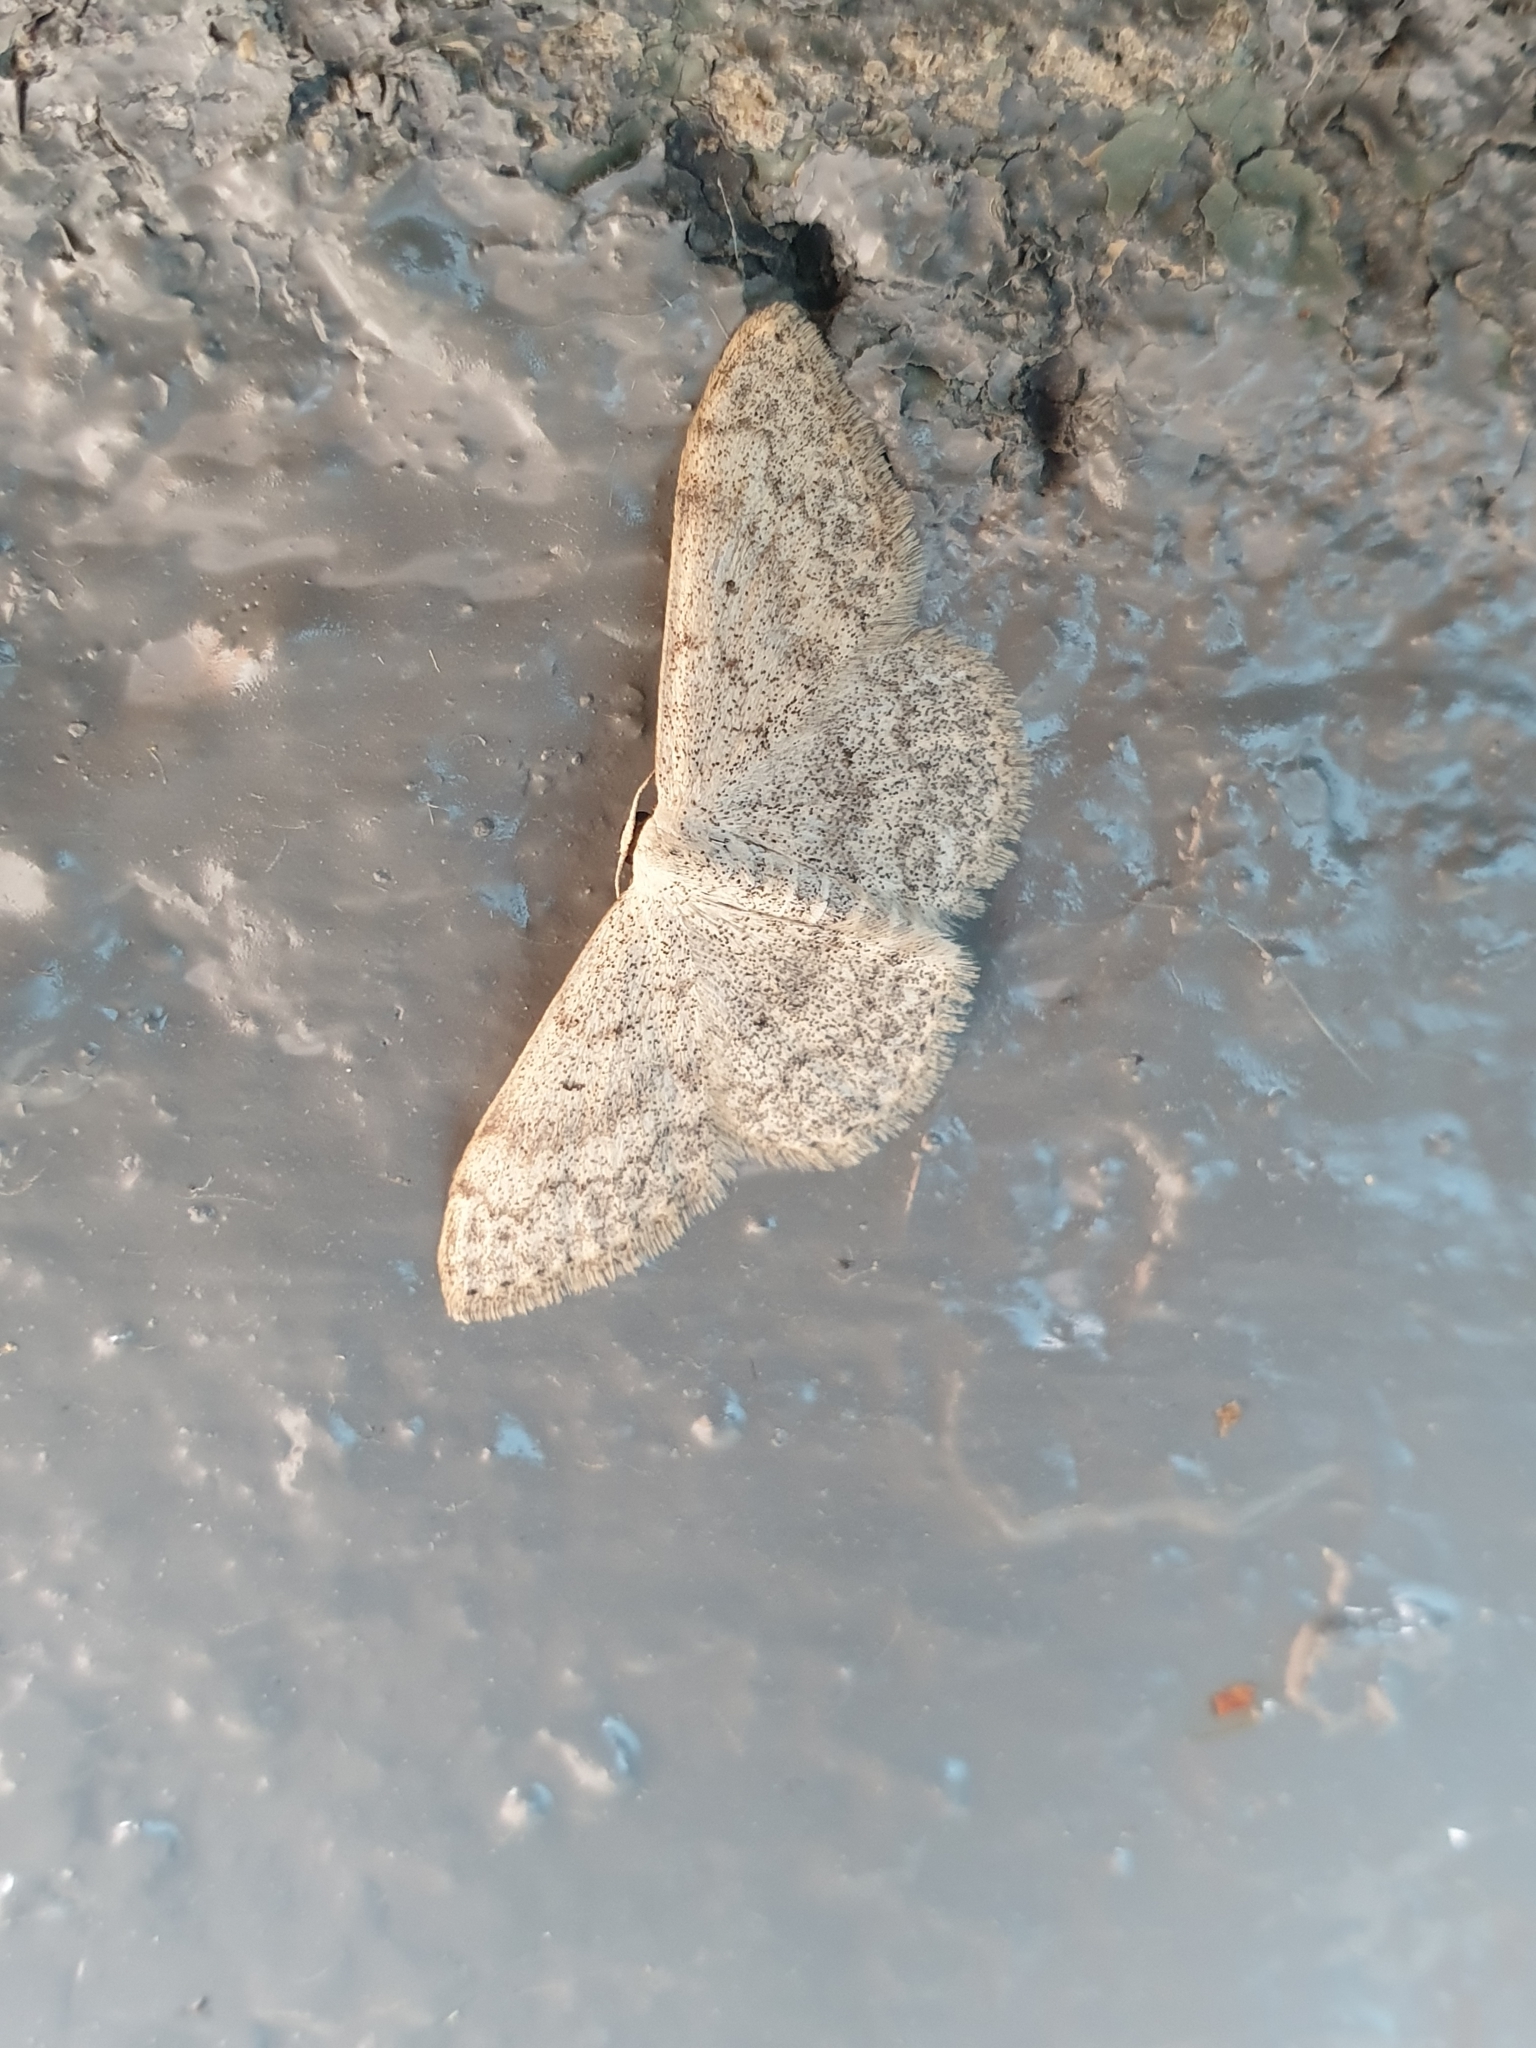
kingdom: Animalia
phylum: Arthropoda
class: Insecta
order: Lepidoptera
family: Geometridae
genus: Scopula
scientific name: Scopula marginepunctata
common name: Mullein wave
